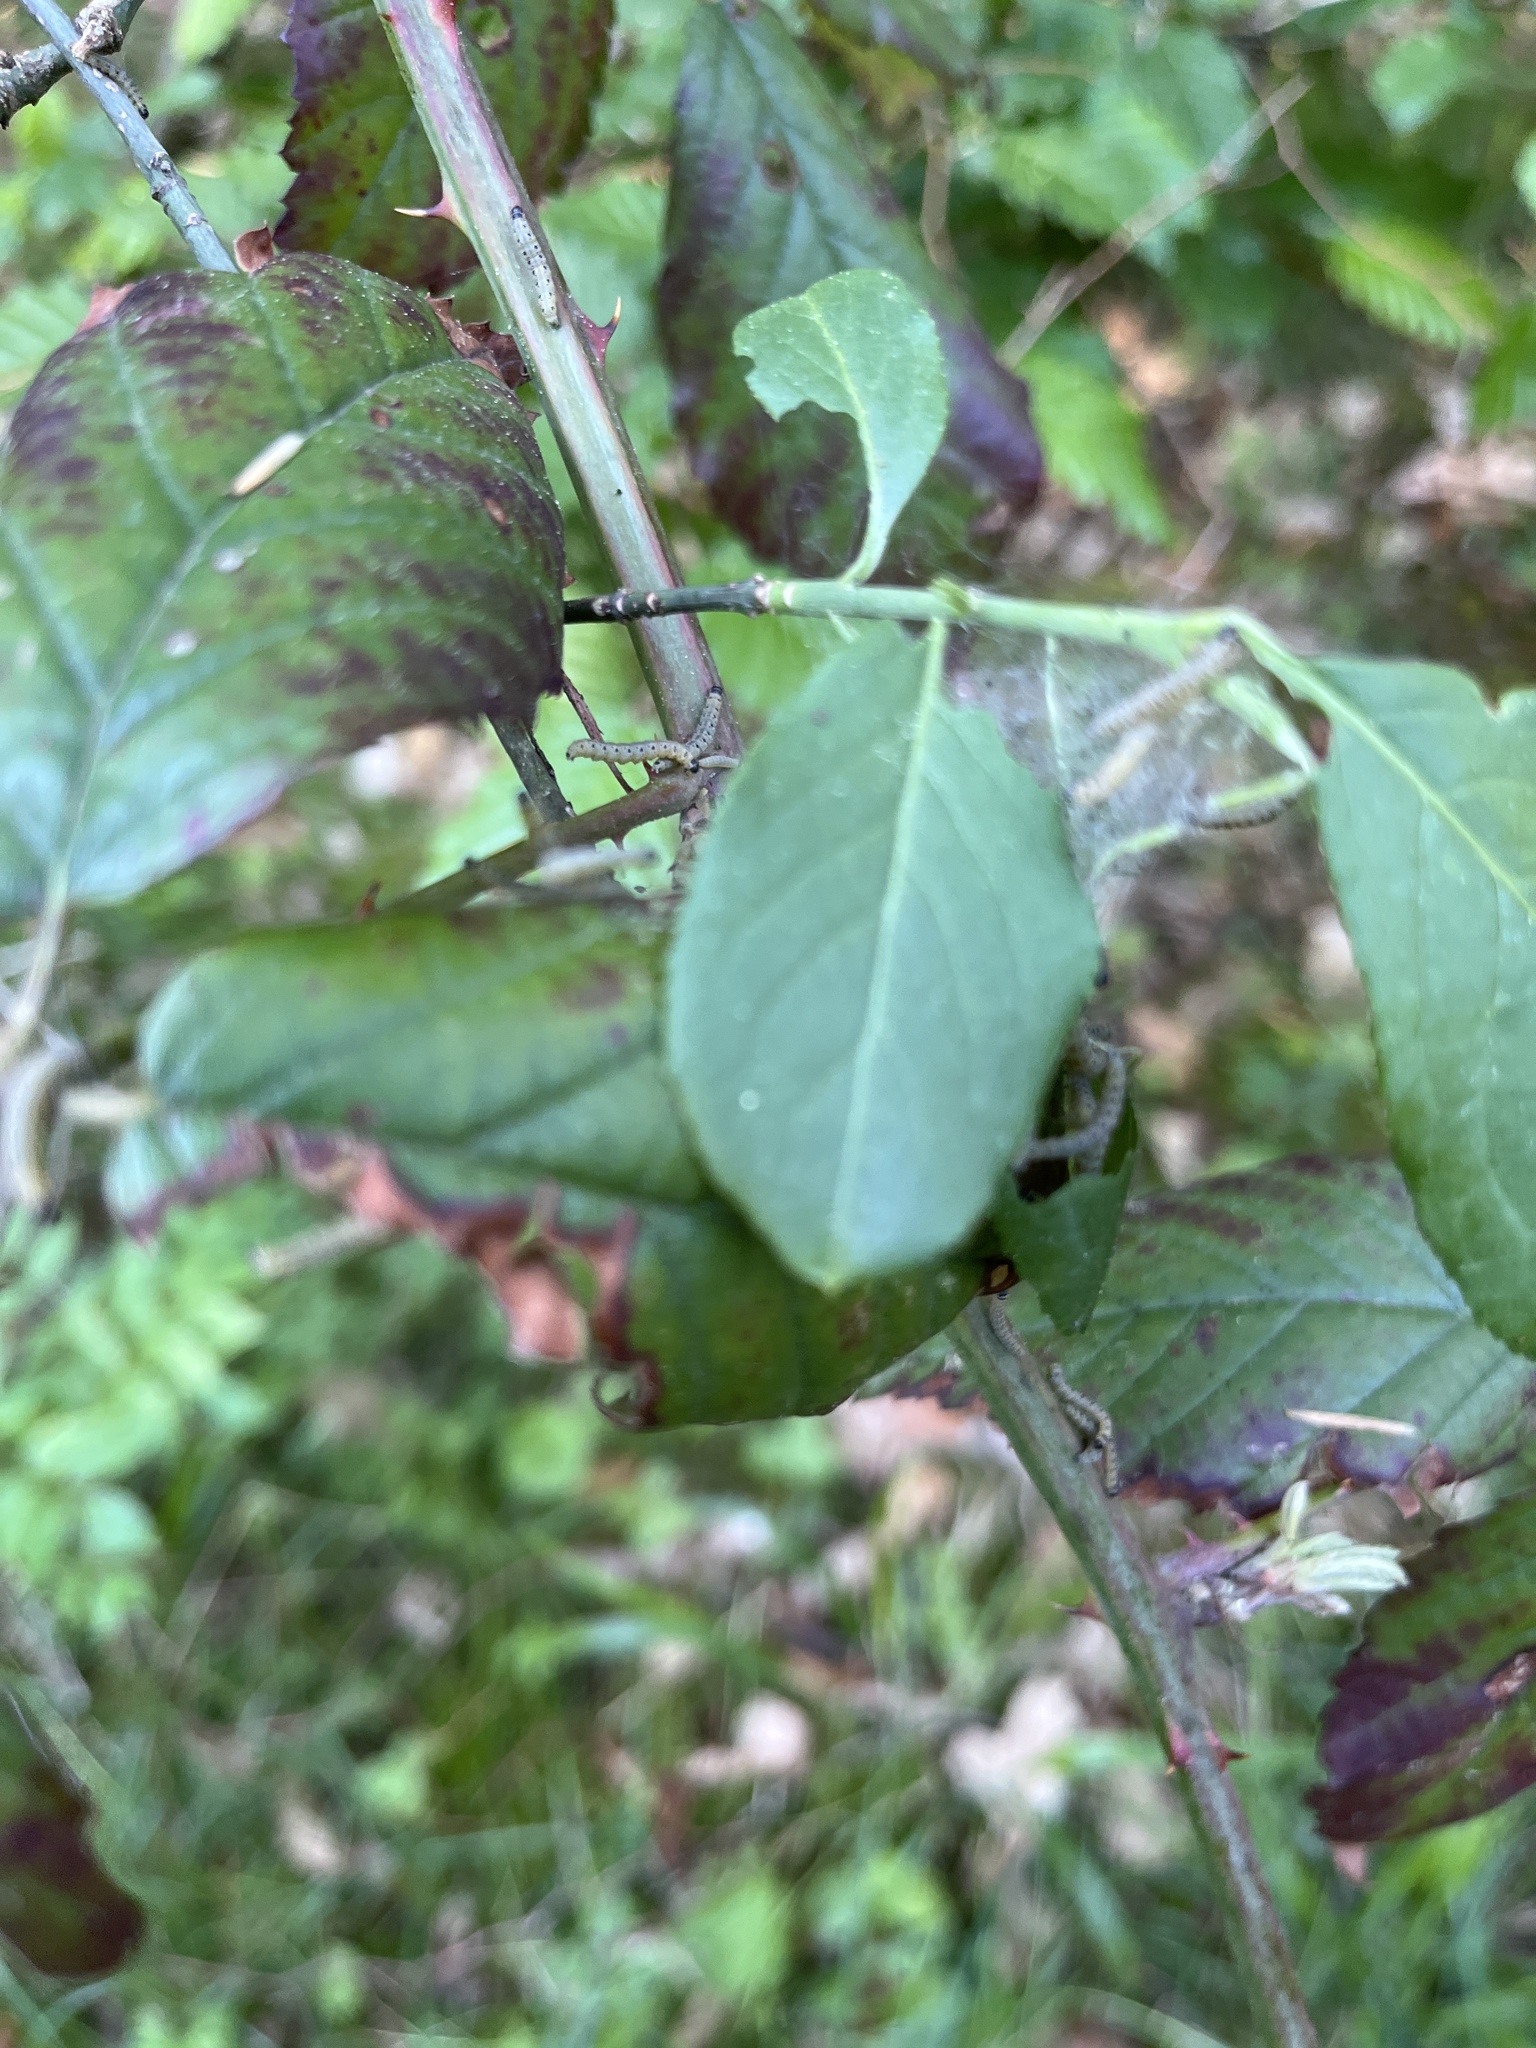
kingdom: Animalia
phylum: Arthropoda
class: Insecta
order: Lepidoptera
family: Yponomeutidae
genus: Yponomeuta
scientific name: Yponomeuta cagnagellus
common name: Spindle ermine
